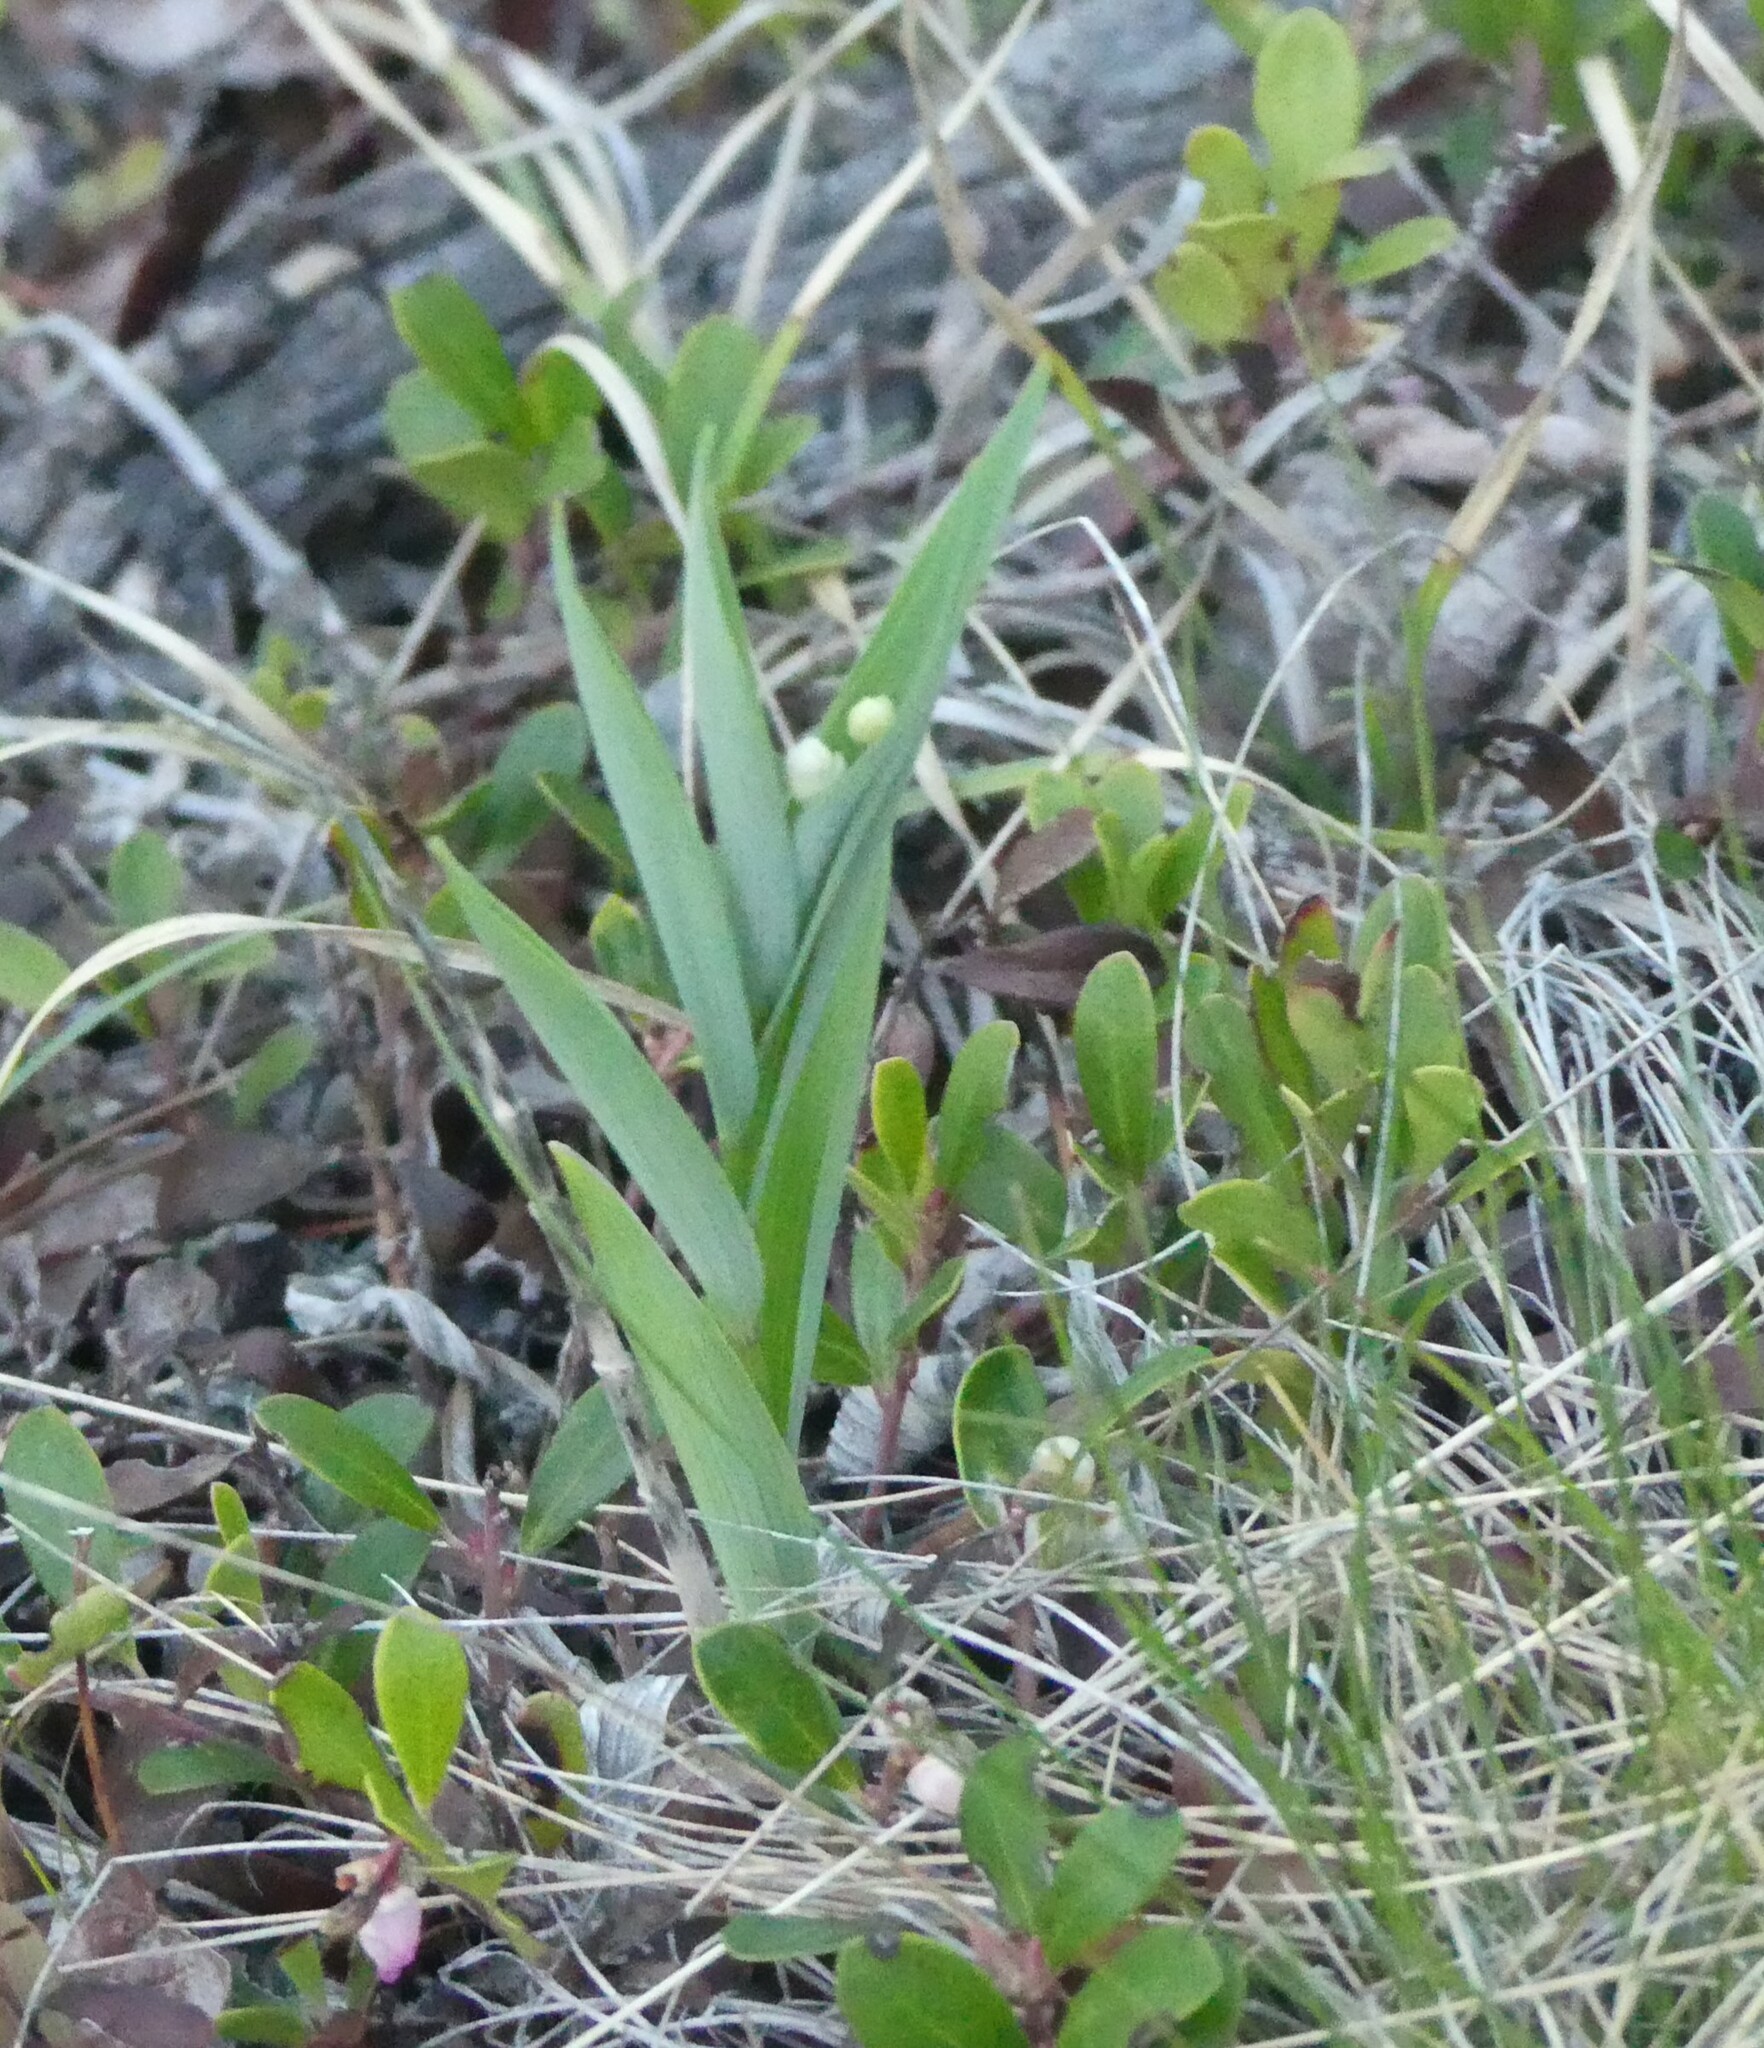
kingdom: Plantae
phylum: Tracheophyta
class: Liliopsida
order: Asparagales
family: Asparagaceae
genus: Maianthemum
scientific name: Maianthemum stellatum
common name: Little false solomon's seal
